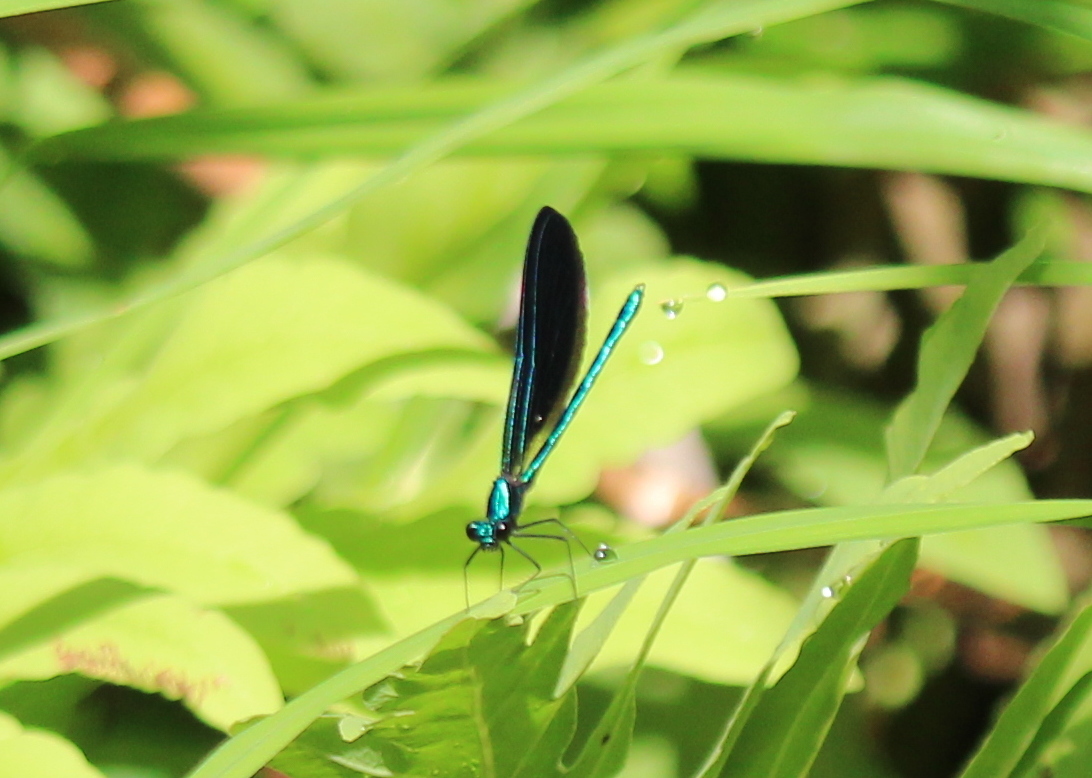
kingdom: Animalia
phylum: Arthropoda
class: Insecta
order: Odonata
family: Calopterygidae
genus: Calopteryx
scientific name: Calopteryx maculata
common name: Ebony jewelwing
